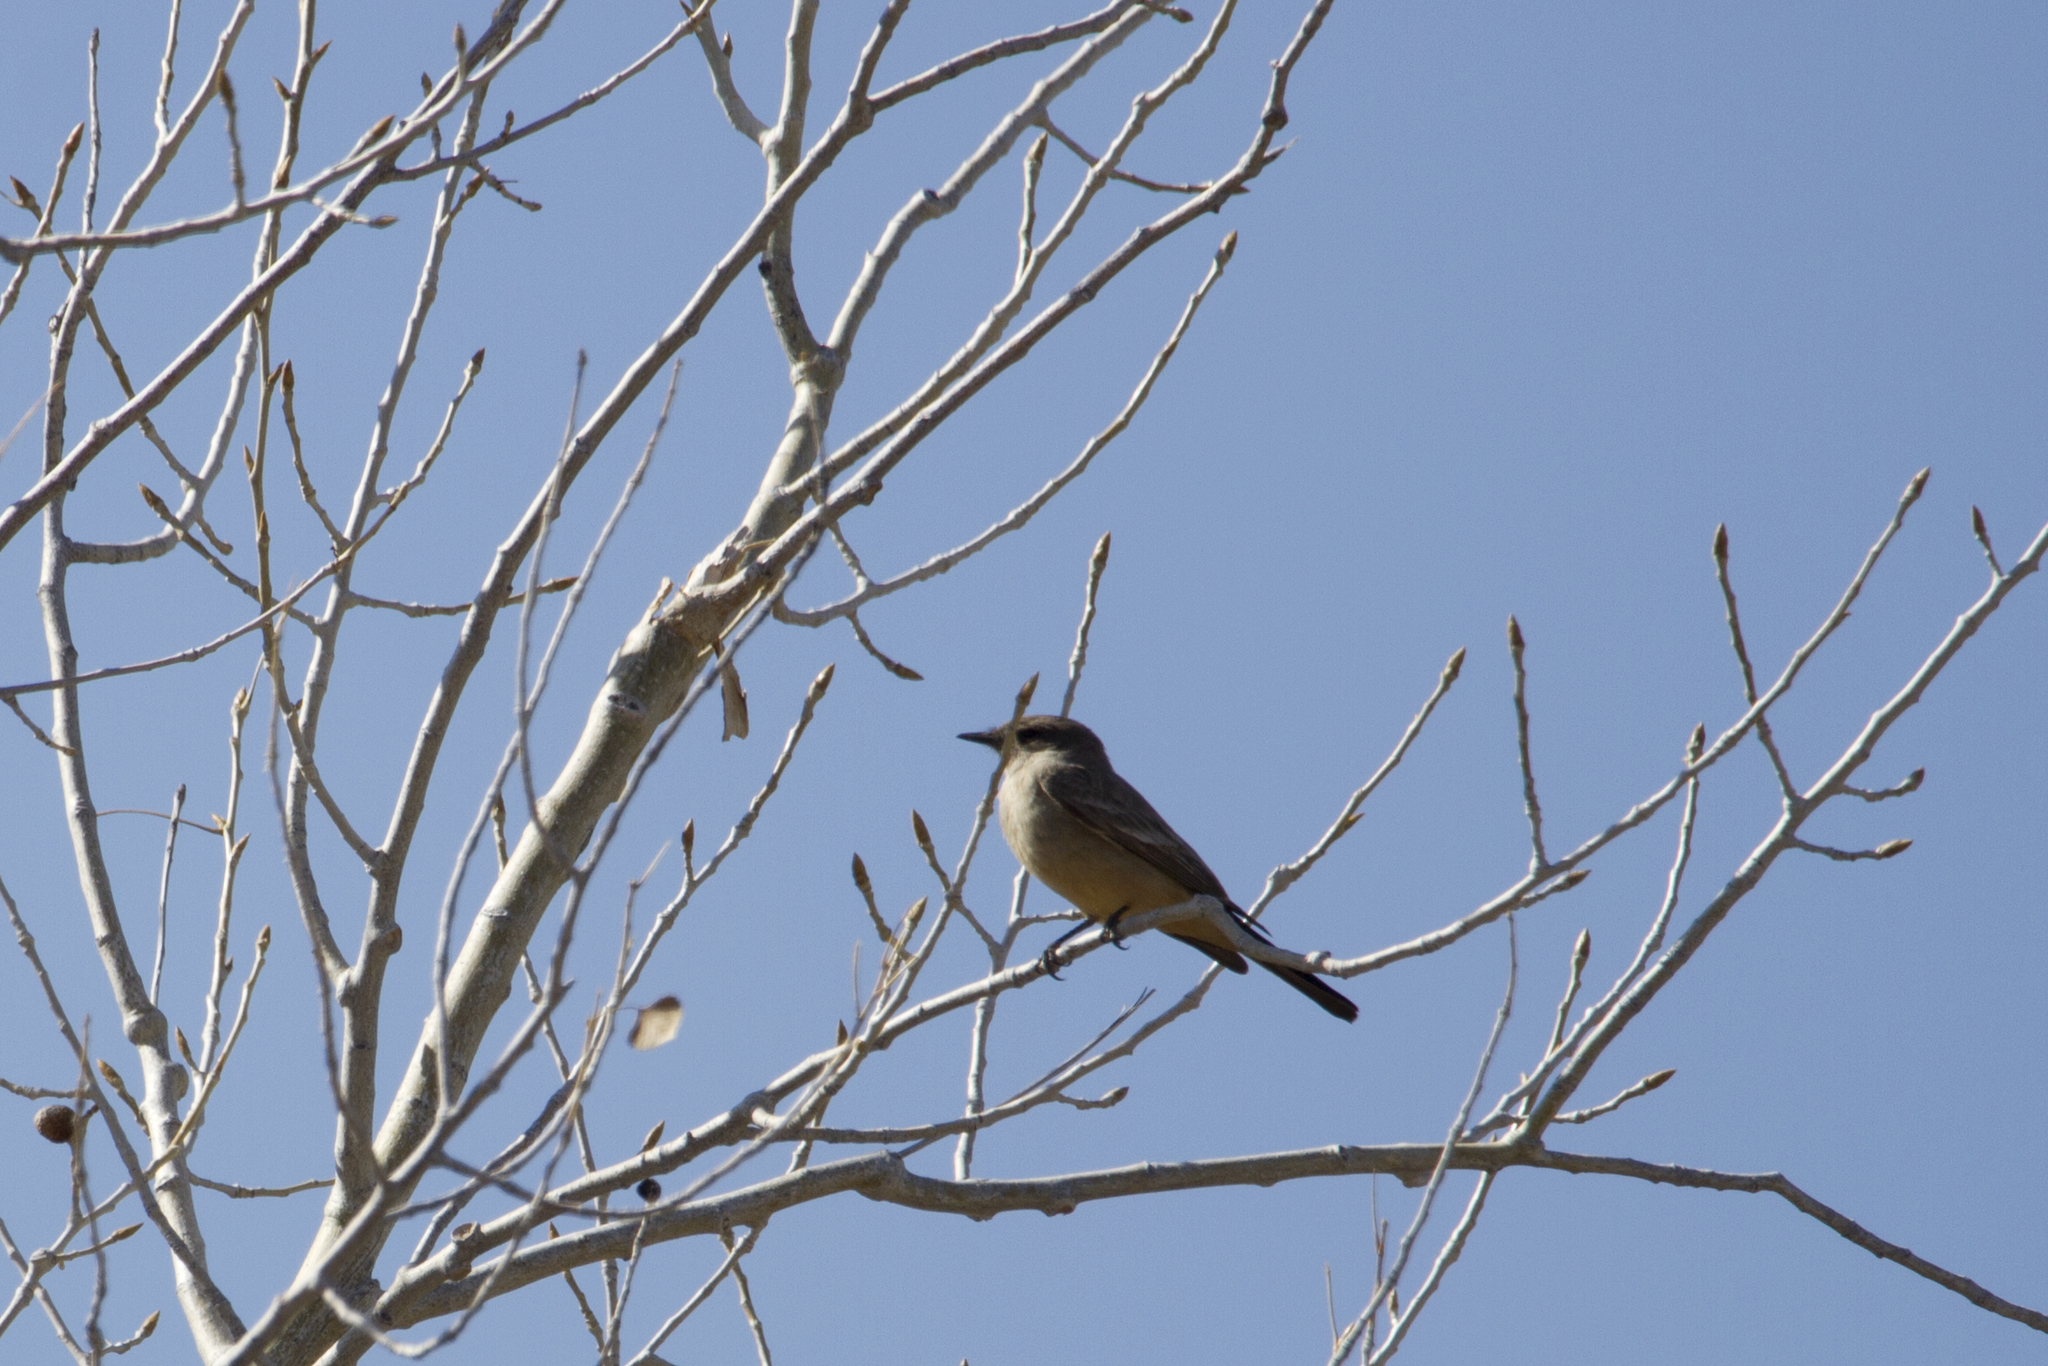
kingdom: Animalia
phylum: Chordata
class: Aves
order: Passeriformes
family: Tyrannidae
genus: Sayornis
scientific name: Sayornis saya
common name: Say's phoebe
